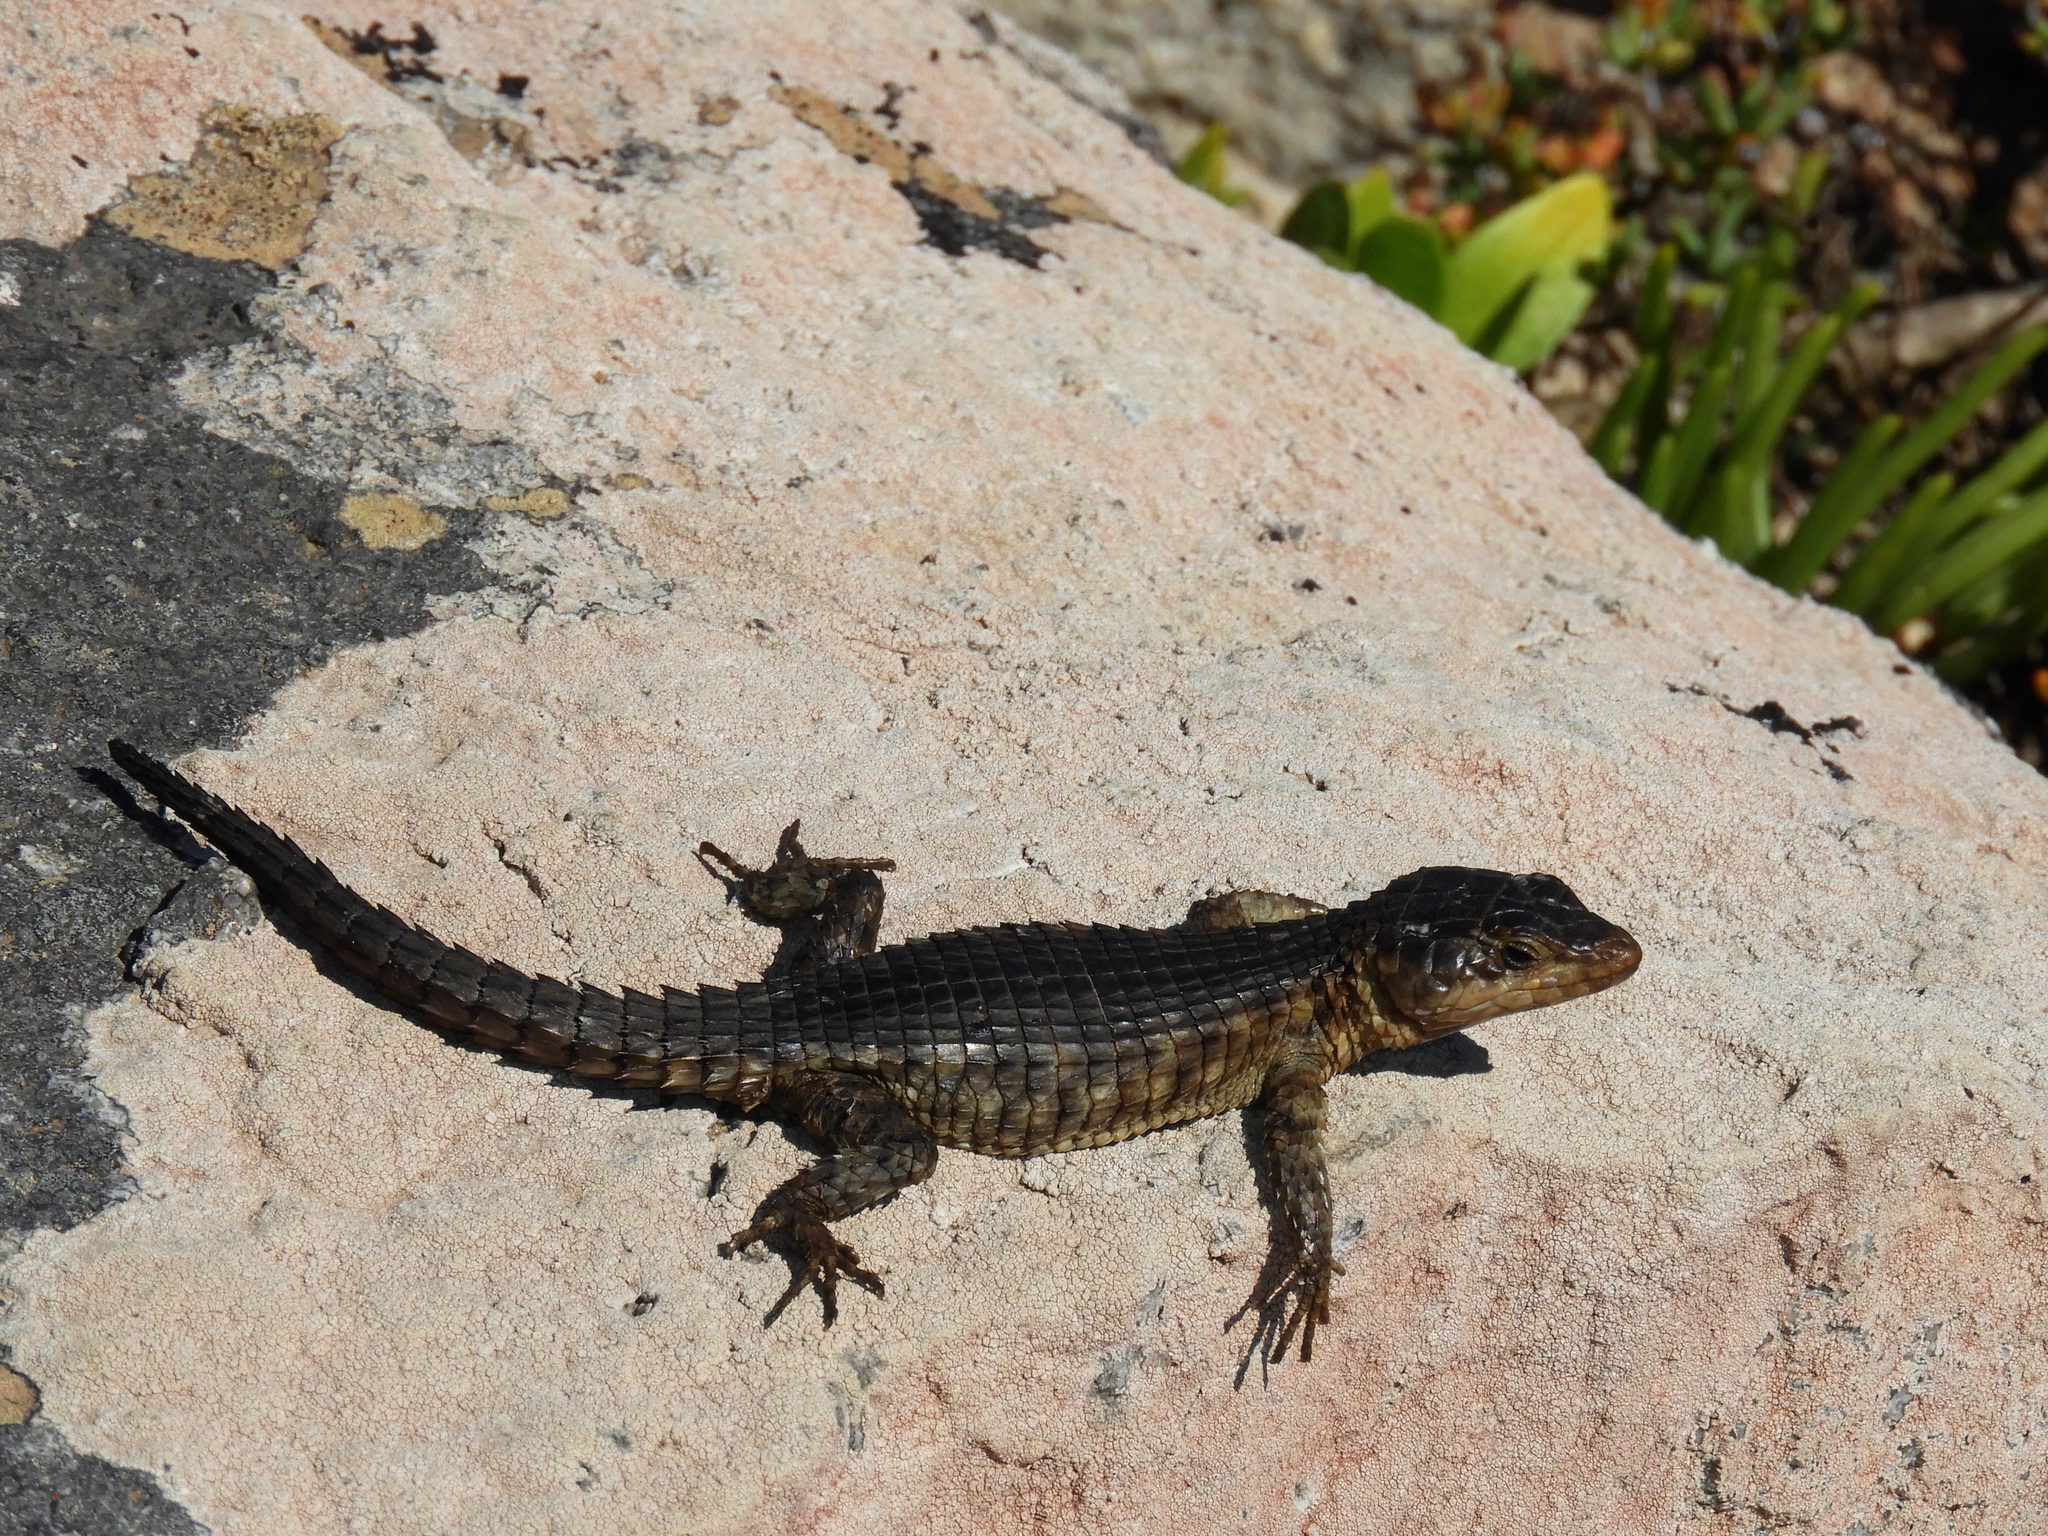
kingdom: Animalia
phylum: Chordata
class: Squamata
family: Cordylidae
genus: Cordylus
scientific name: Cordylus niger
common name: Black girdled lizard
